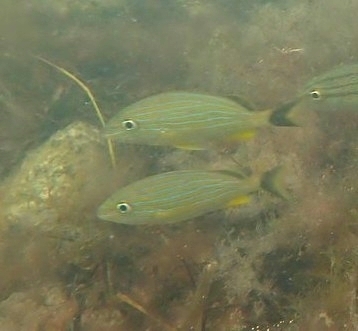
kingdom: Animalia
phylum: Chordata
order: Perciformes
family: Haemulidae
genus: Haemulon
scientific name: Haemulon sciurus
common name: Bluestriped grunt
